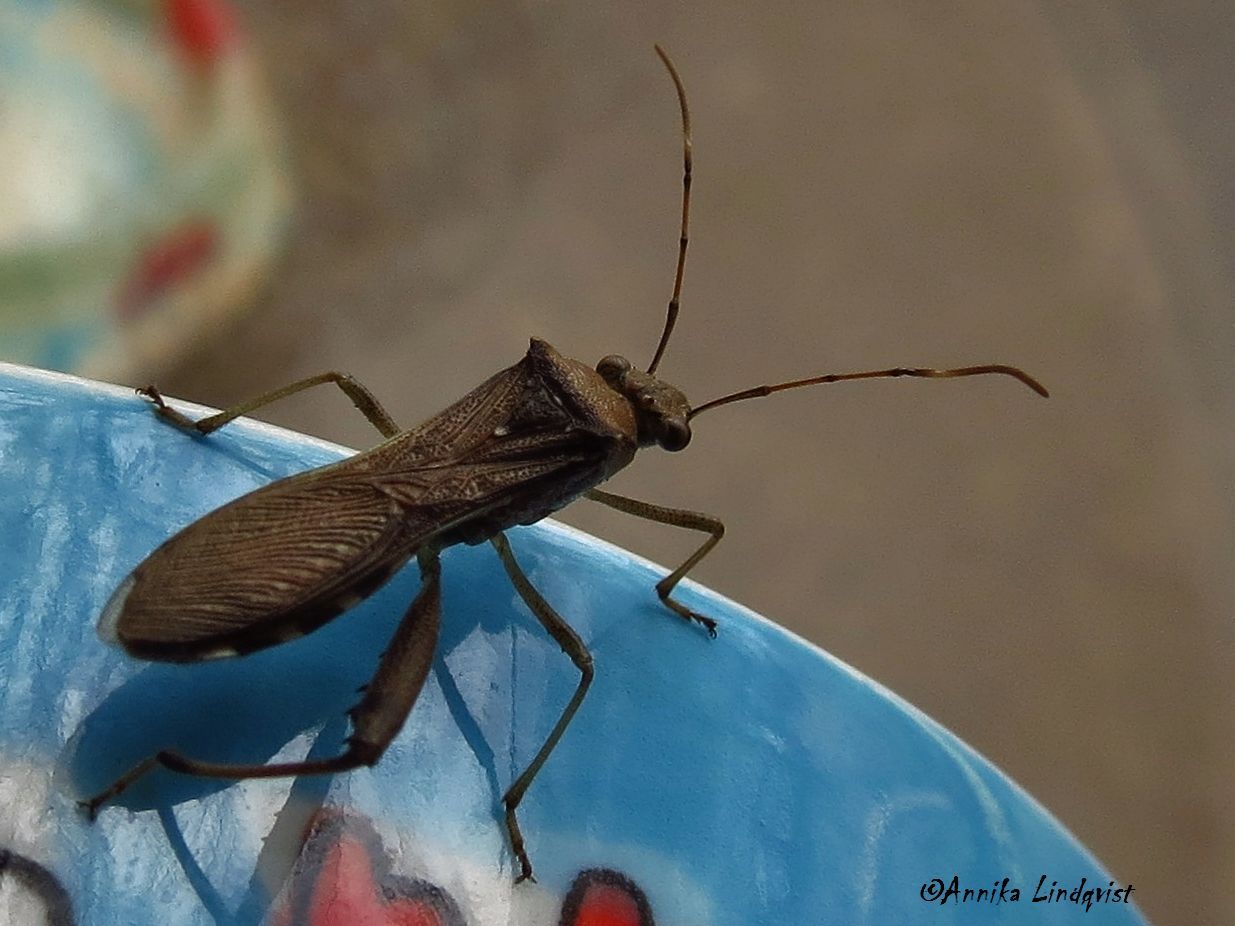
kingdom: Animalia
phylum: Arthropoda
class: Insecta
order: Hemiptera
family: Alydidae
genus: Hyalymenus
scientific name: Hyalymenus tarsatus
